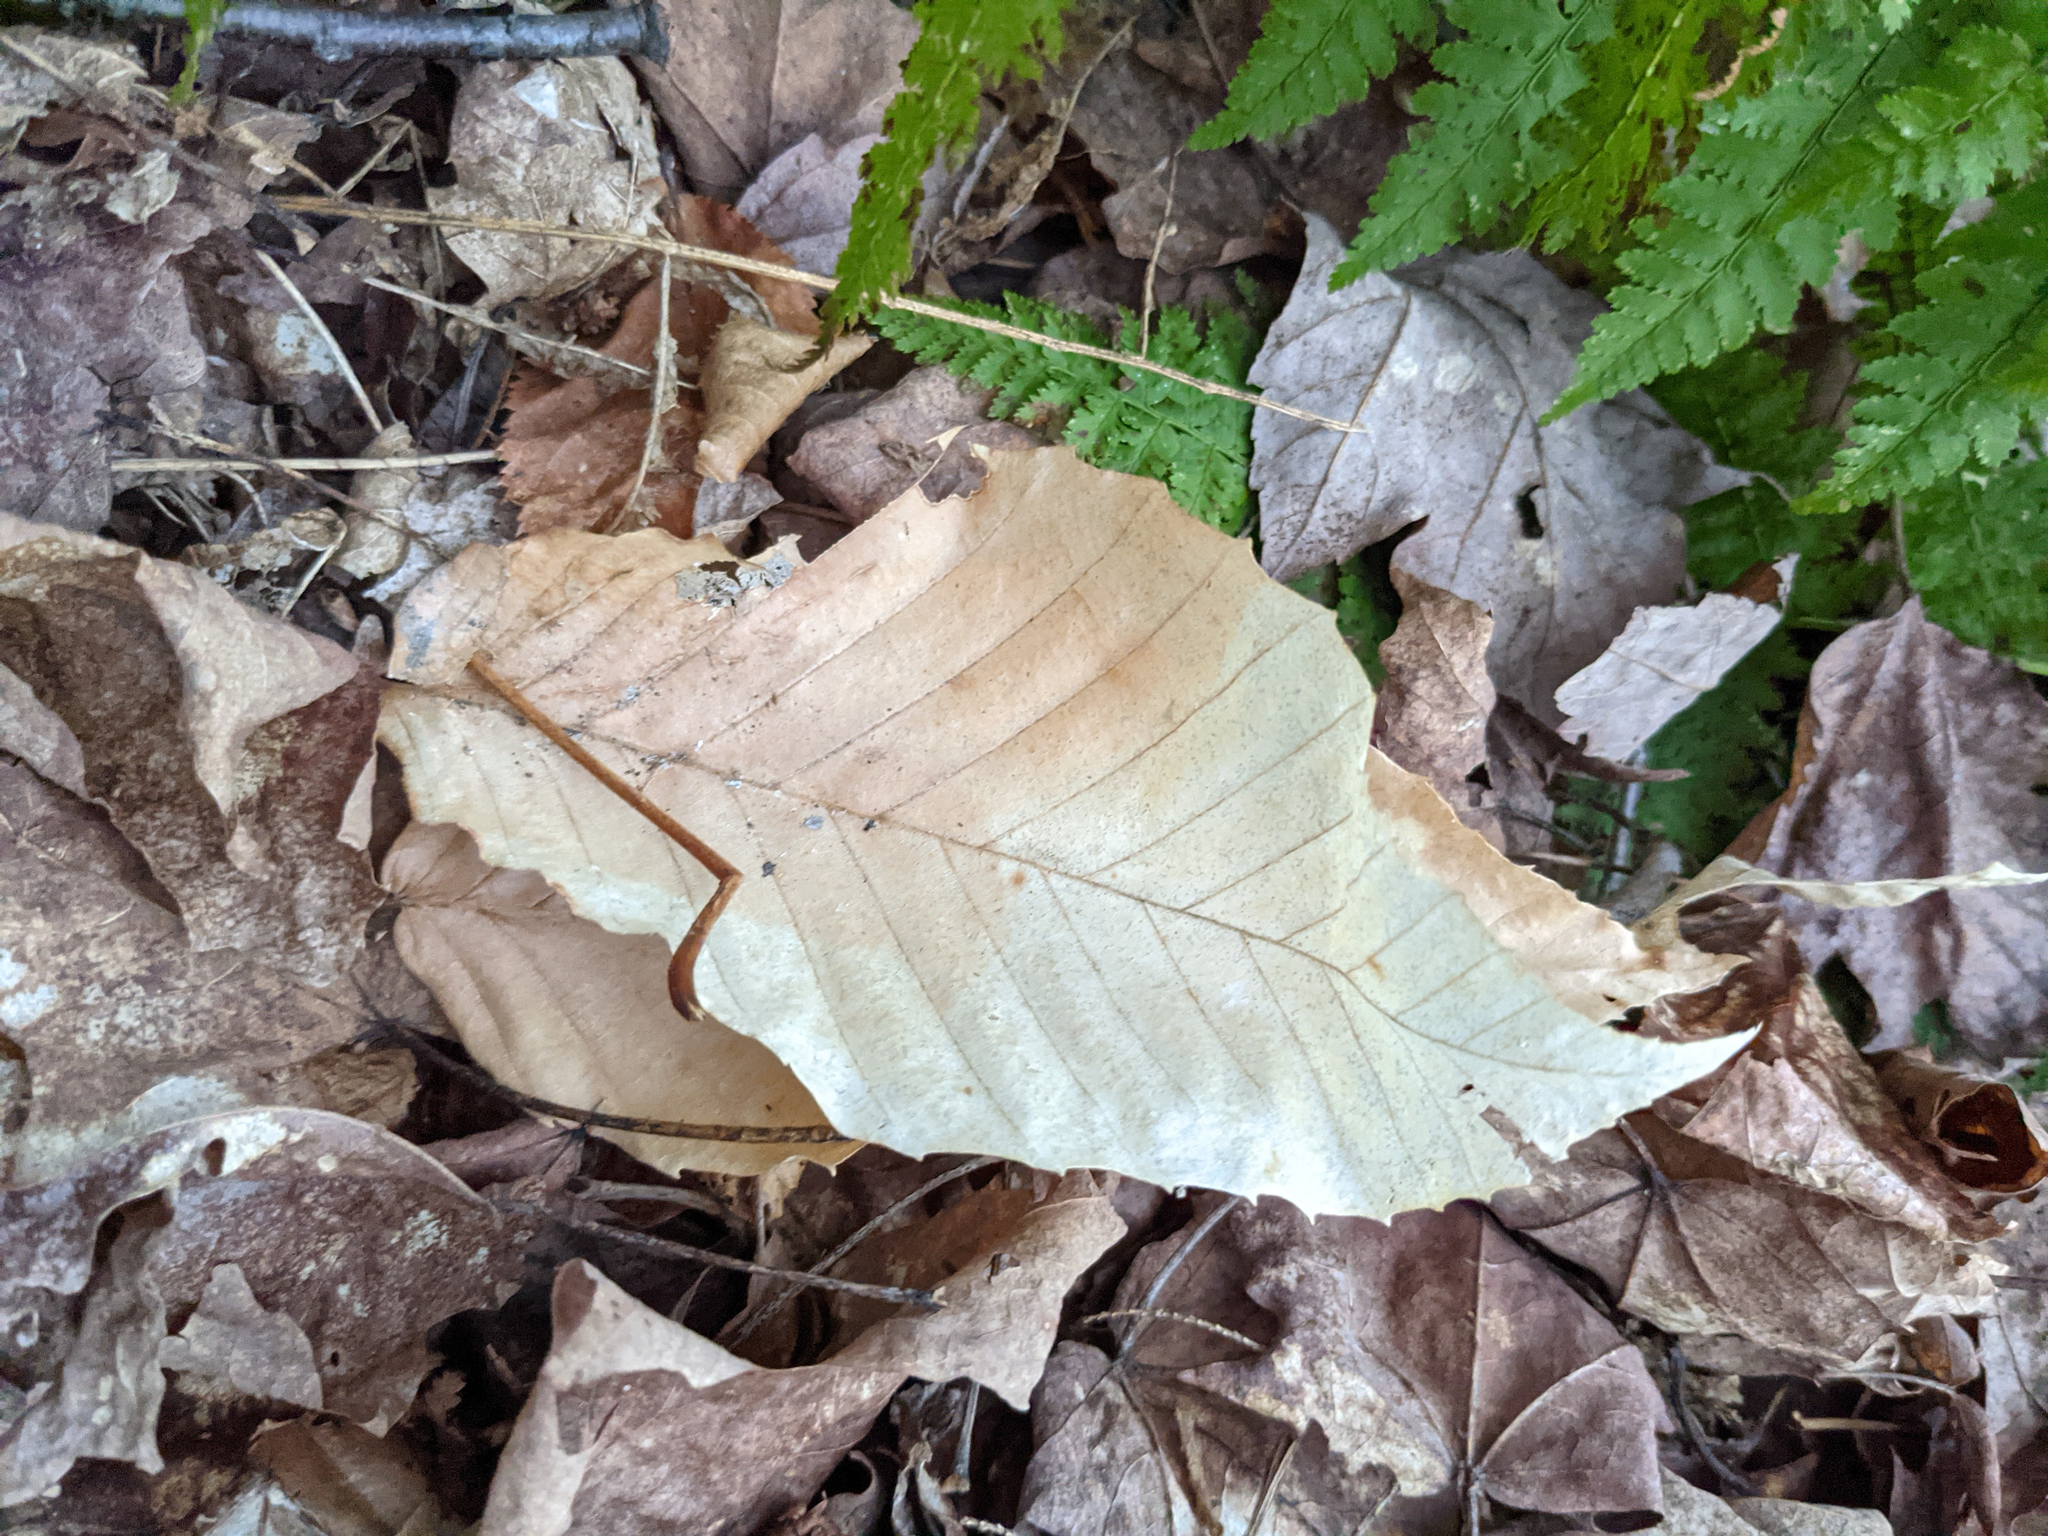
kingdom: Plantae
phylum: Tracheophyta
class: Magnoliopsida
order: Fagales
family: Fagaceae
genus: Fagus
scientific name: Fagus grandifolia
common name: American beech
